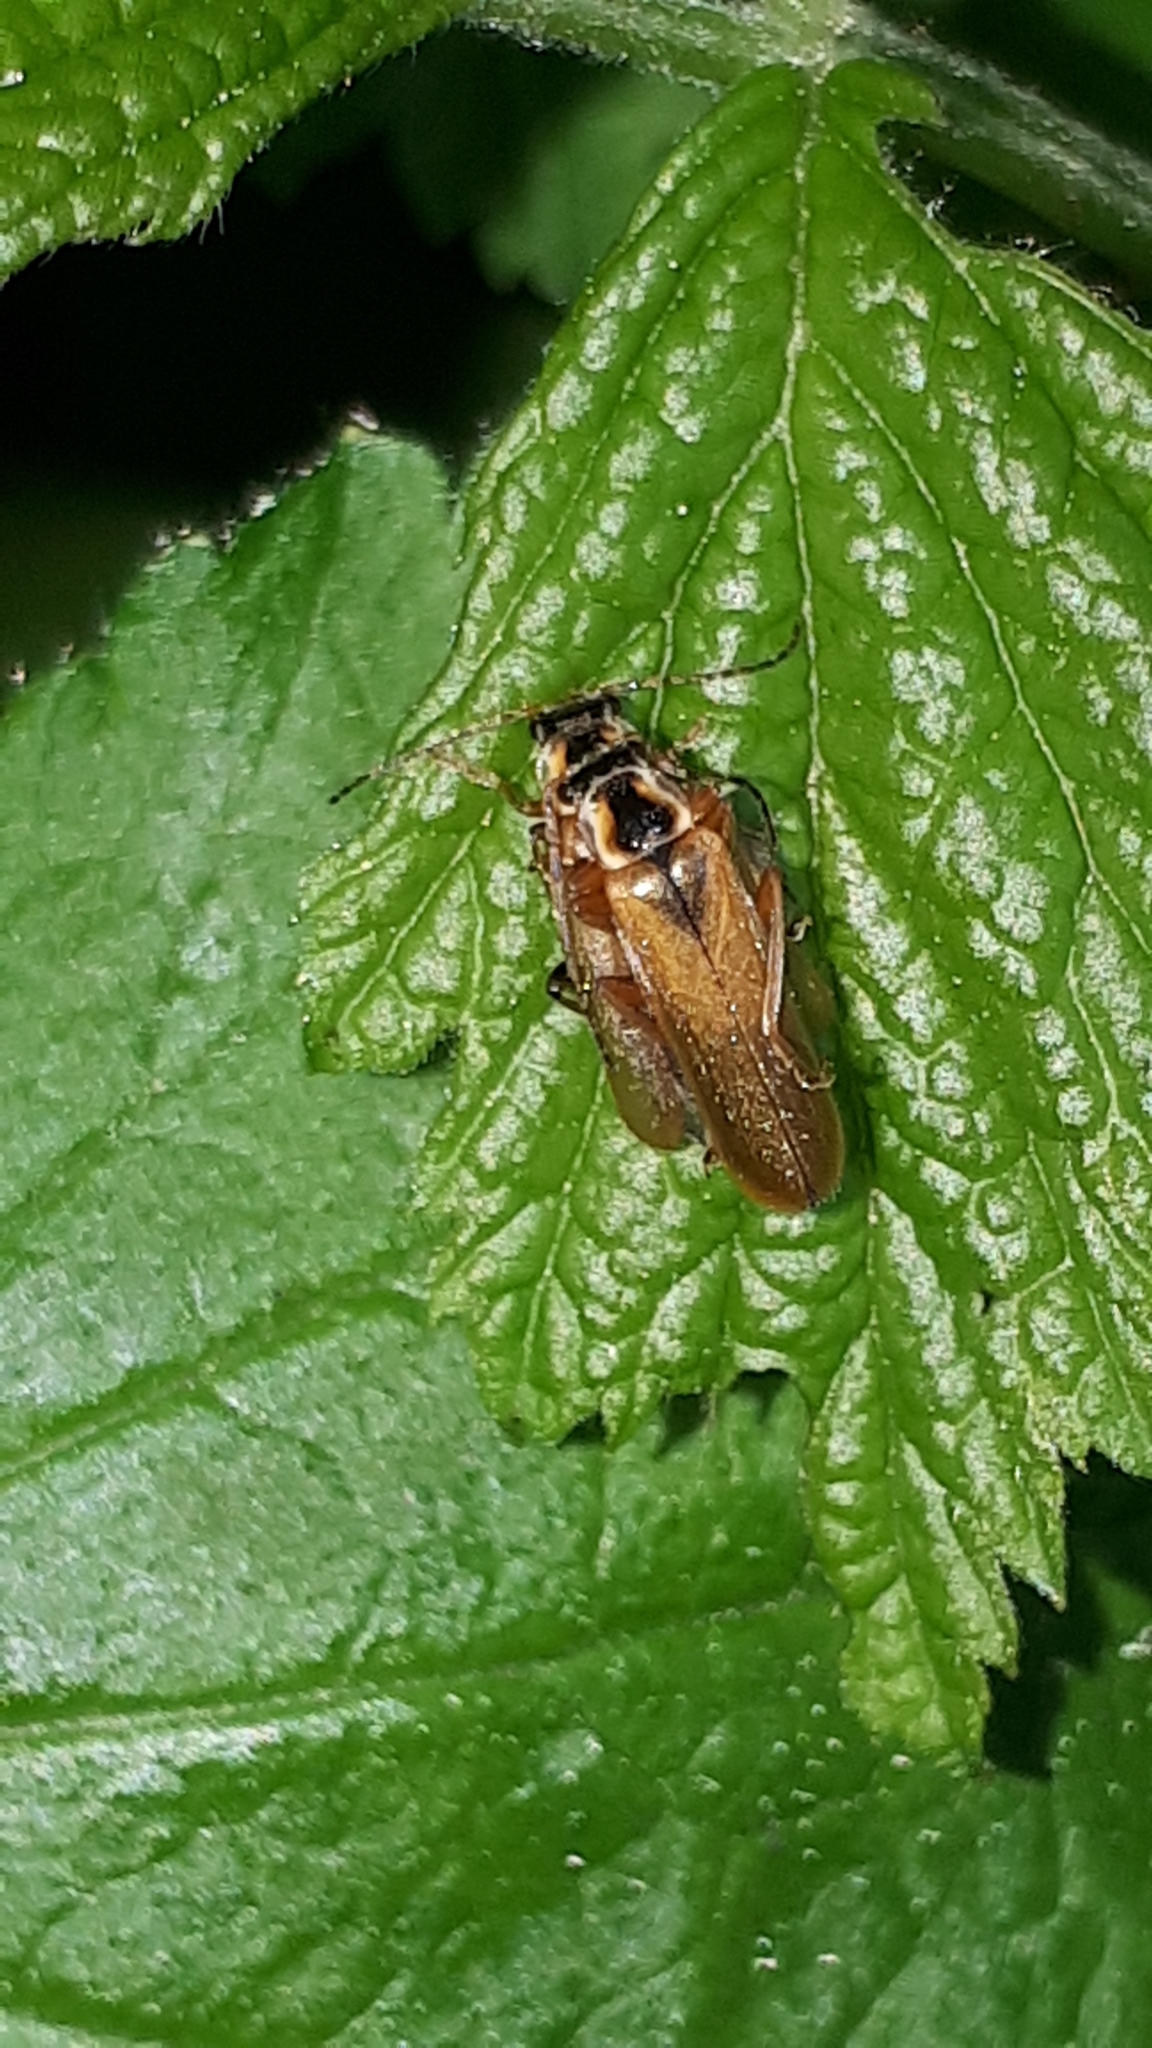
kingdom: Animalia
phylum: Arthropoda
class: Insecta
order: Coleoptera
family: Cantharidae
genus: Cantharis
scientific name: Cantharis decipiens
